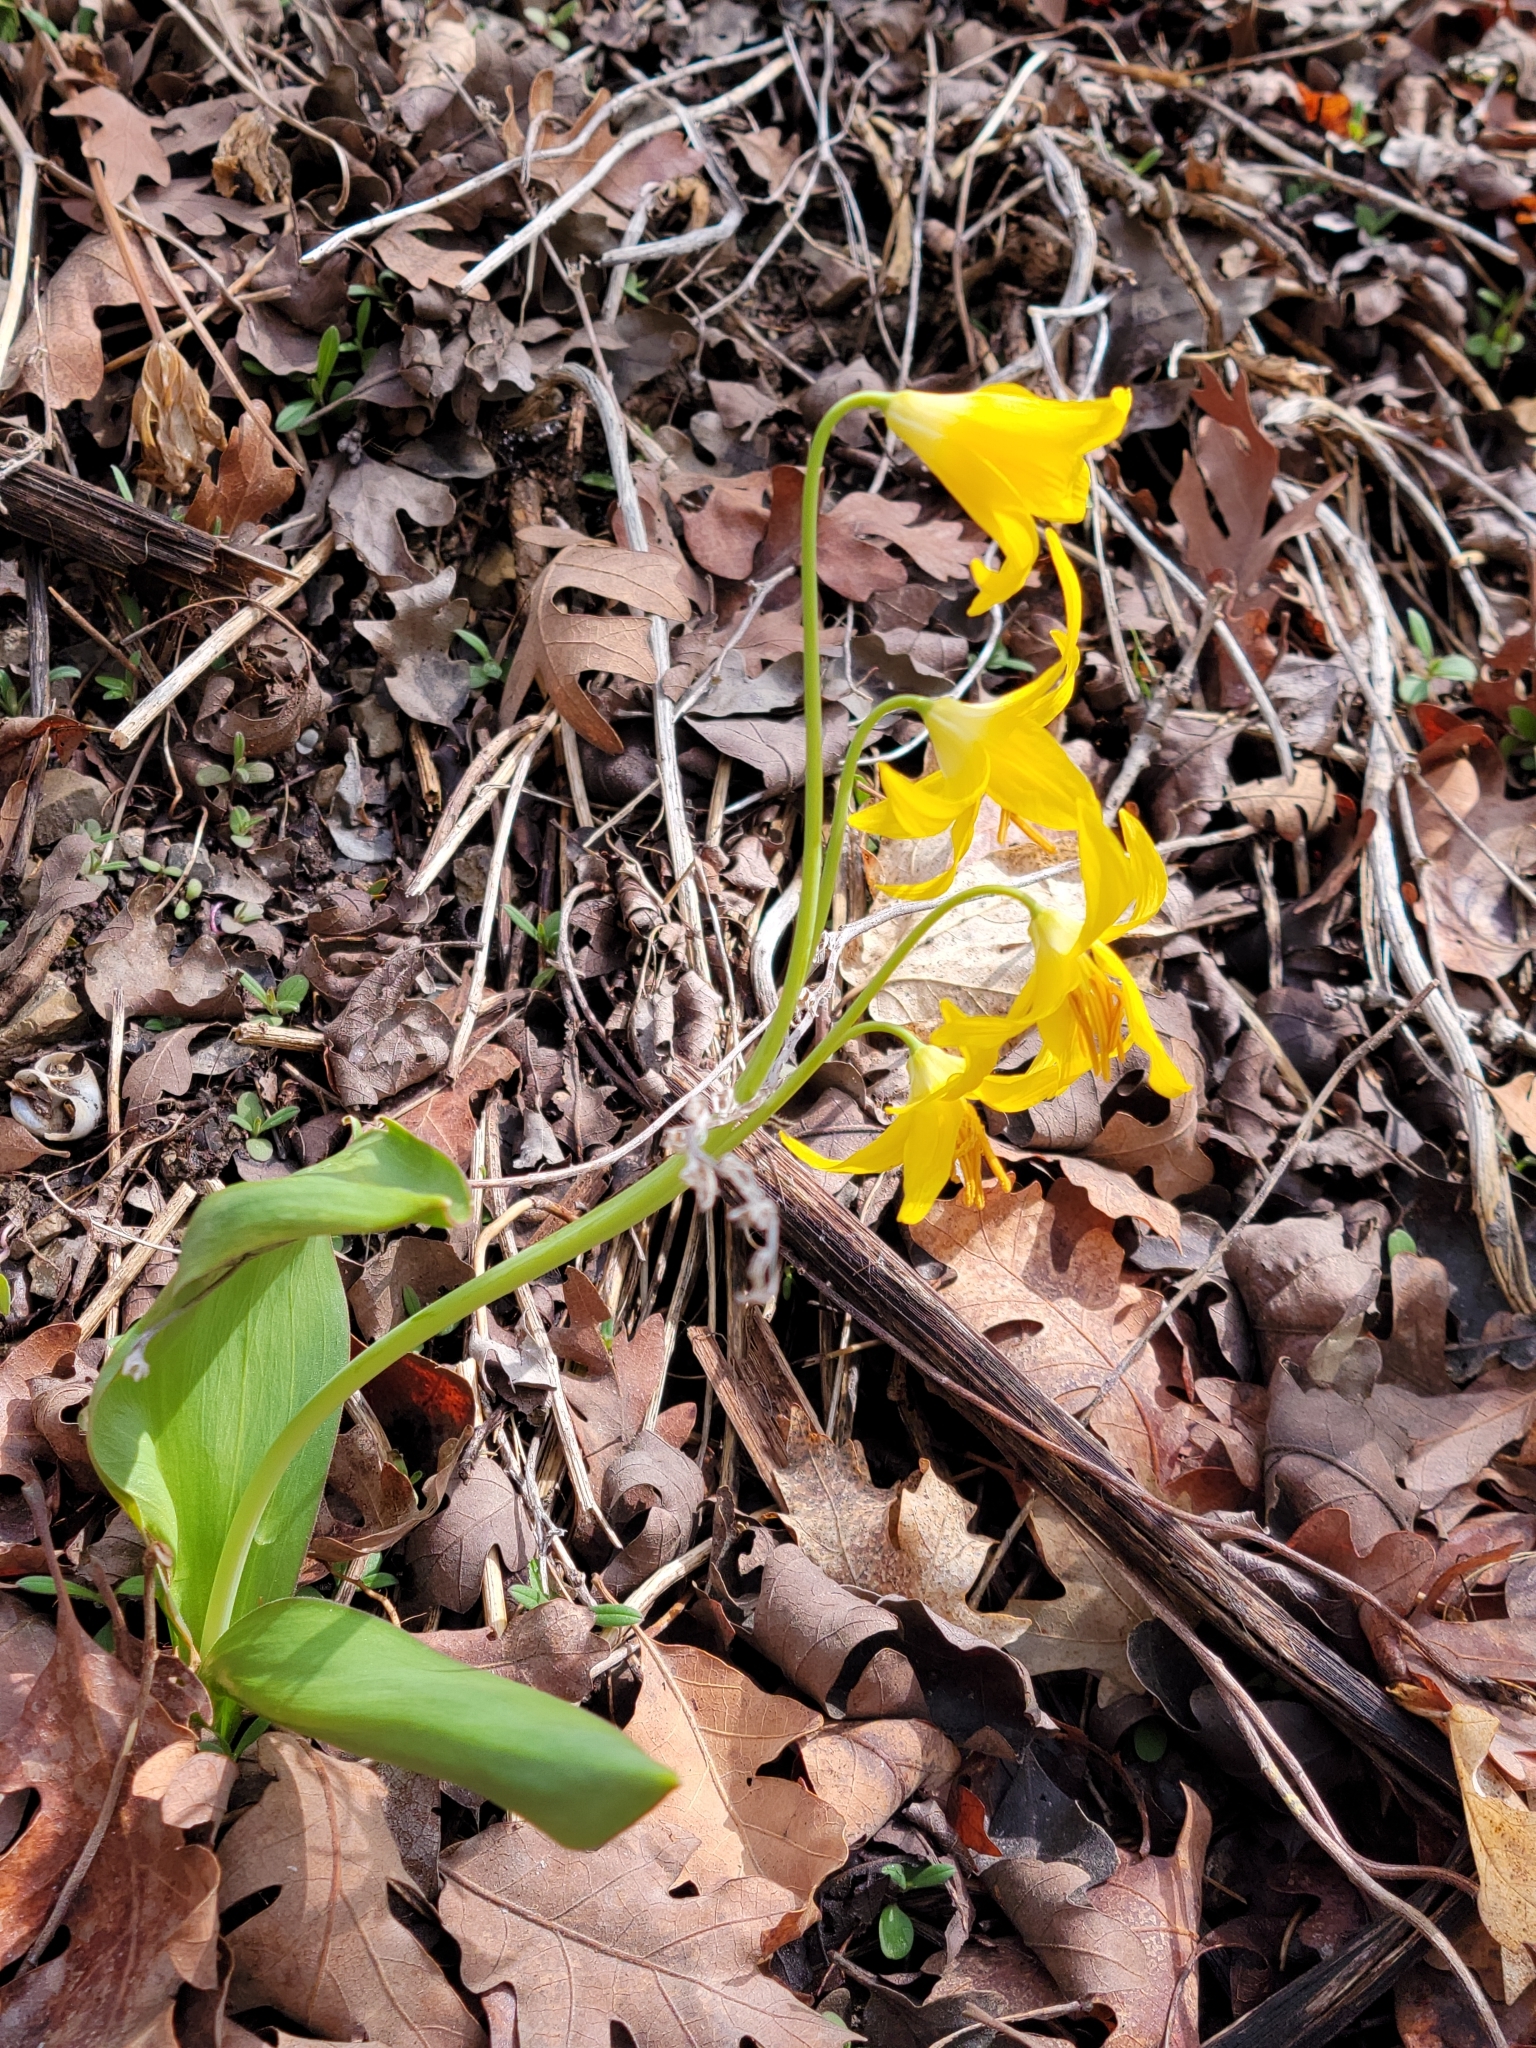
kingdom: Plantae
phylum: Tracheophyta
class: Liliopsida
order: Liliales
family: Liliaceae
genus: Erythronium
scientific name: Erythronium grandiflorum
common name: Avalanche-lily
